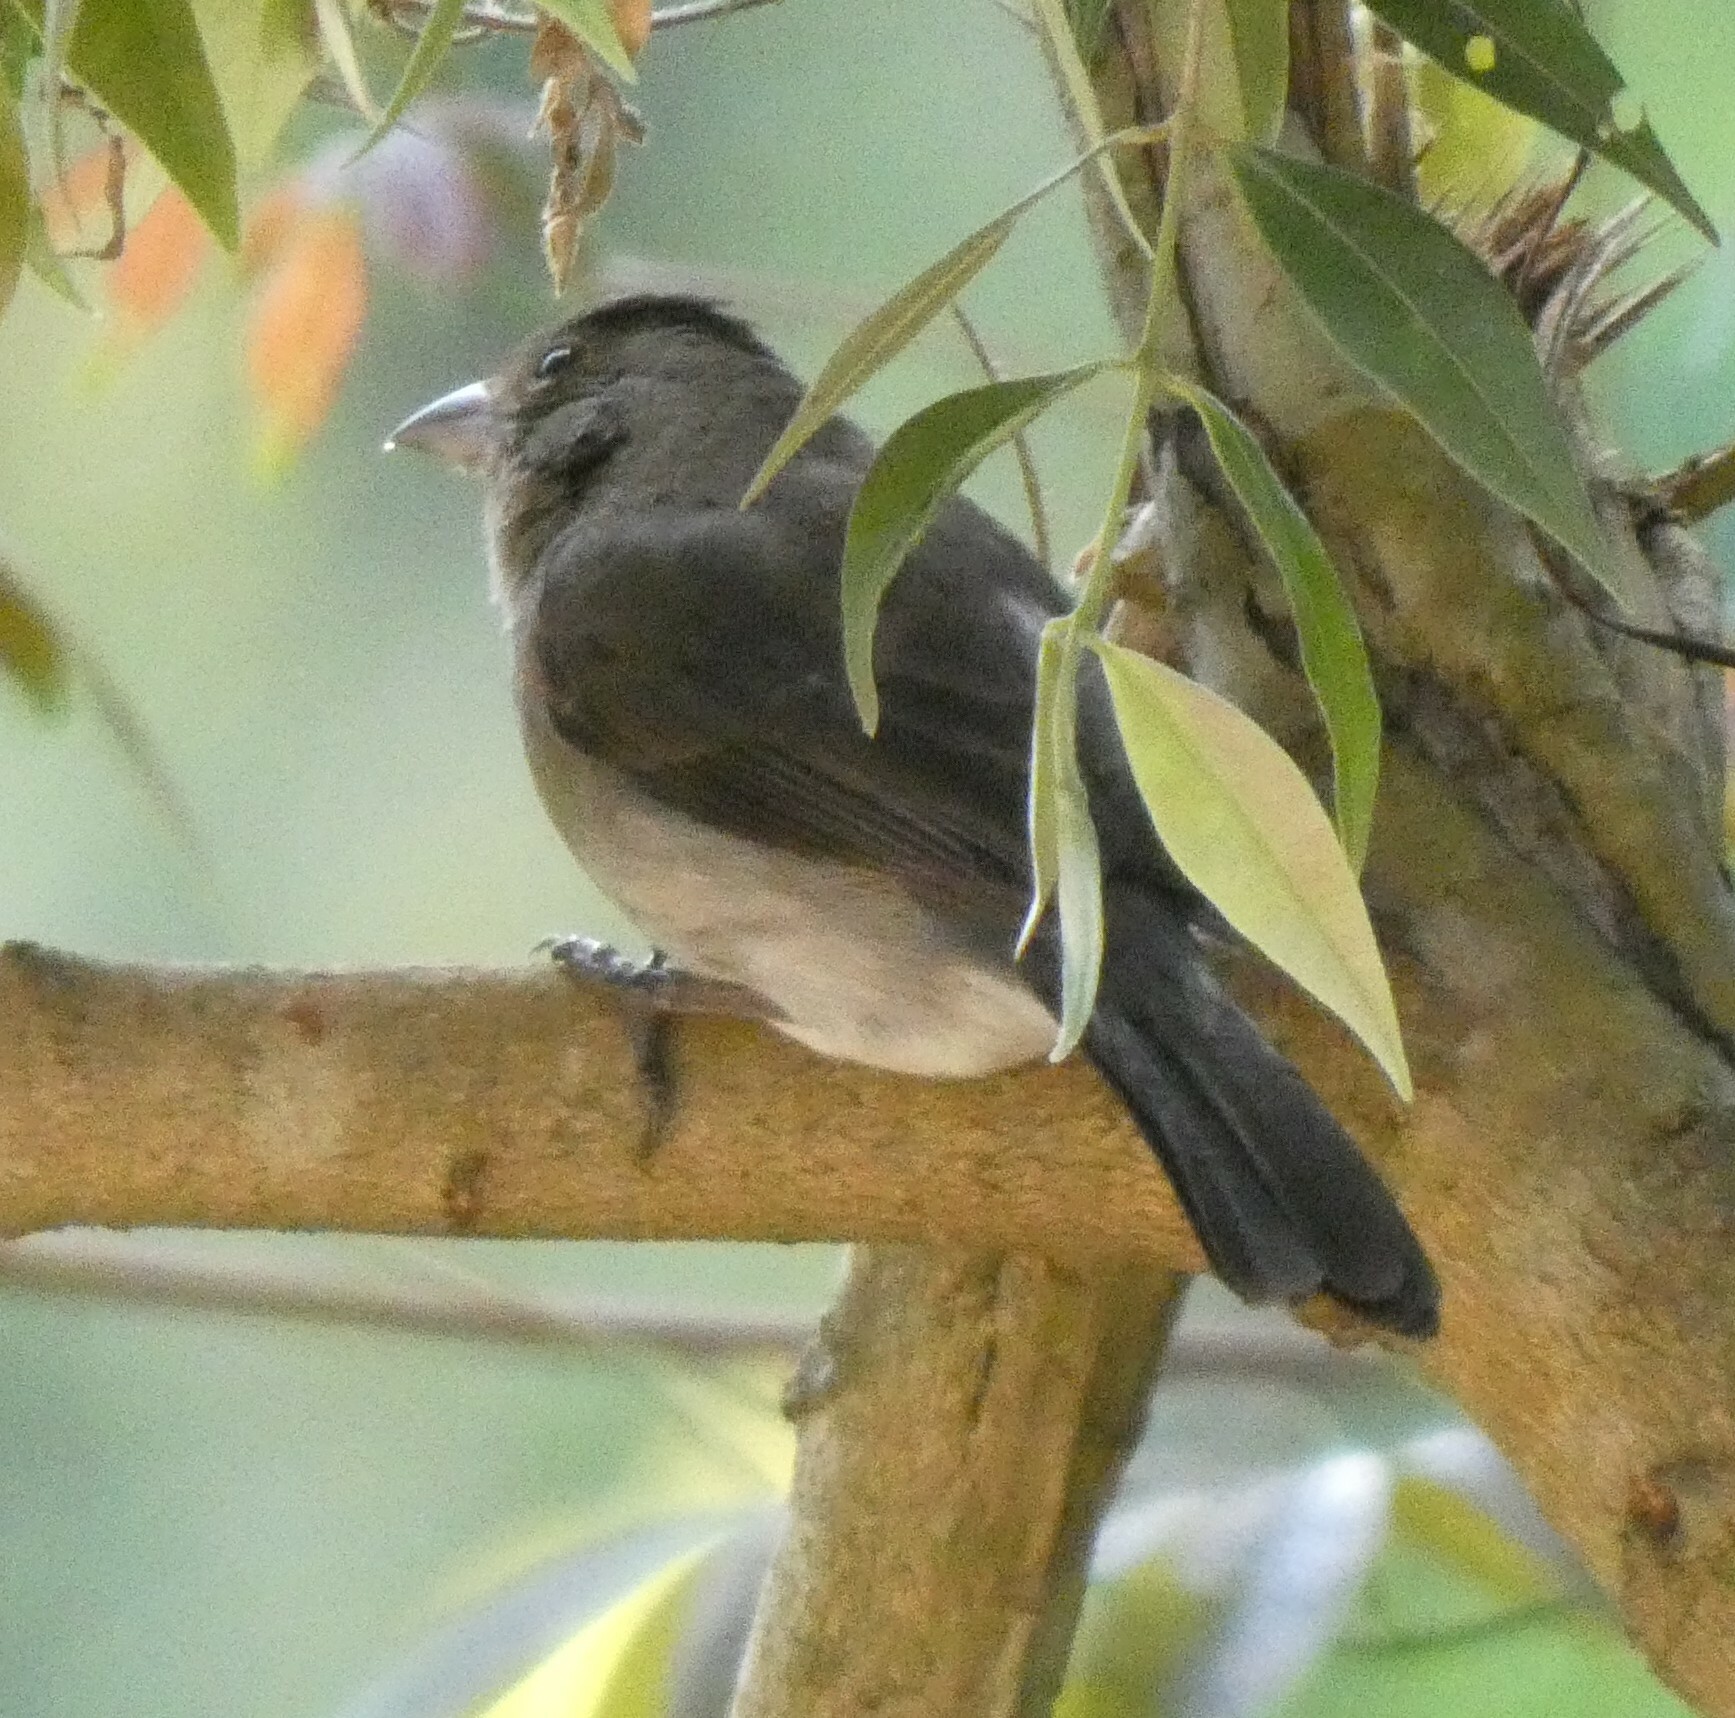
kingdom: Animalia
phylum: Chordata
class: Aves
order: Passeriformes
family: Thraupidae
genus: Coryphospingus
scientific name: Coryphospingus pileatus
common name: Grey pileated finch
